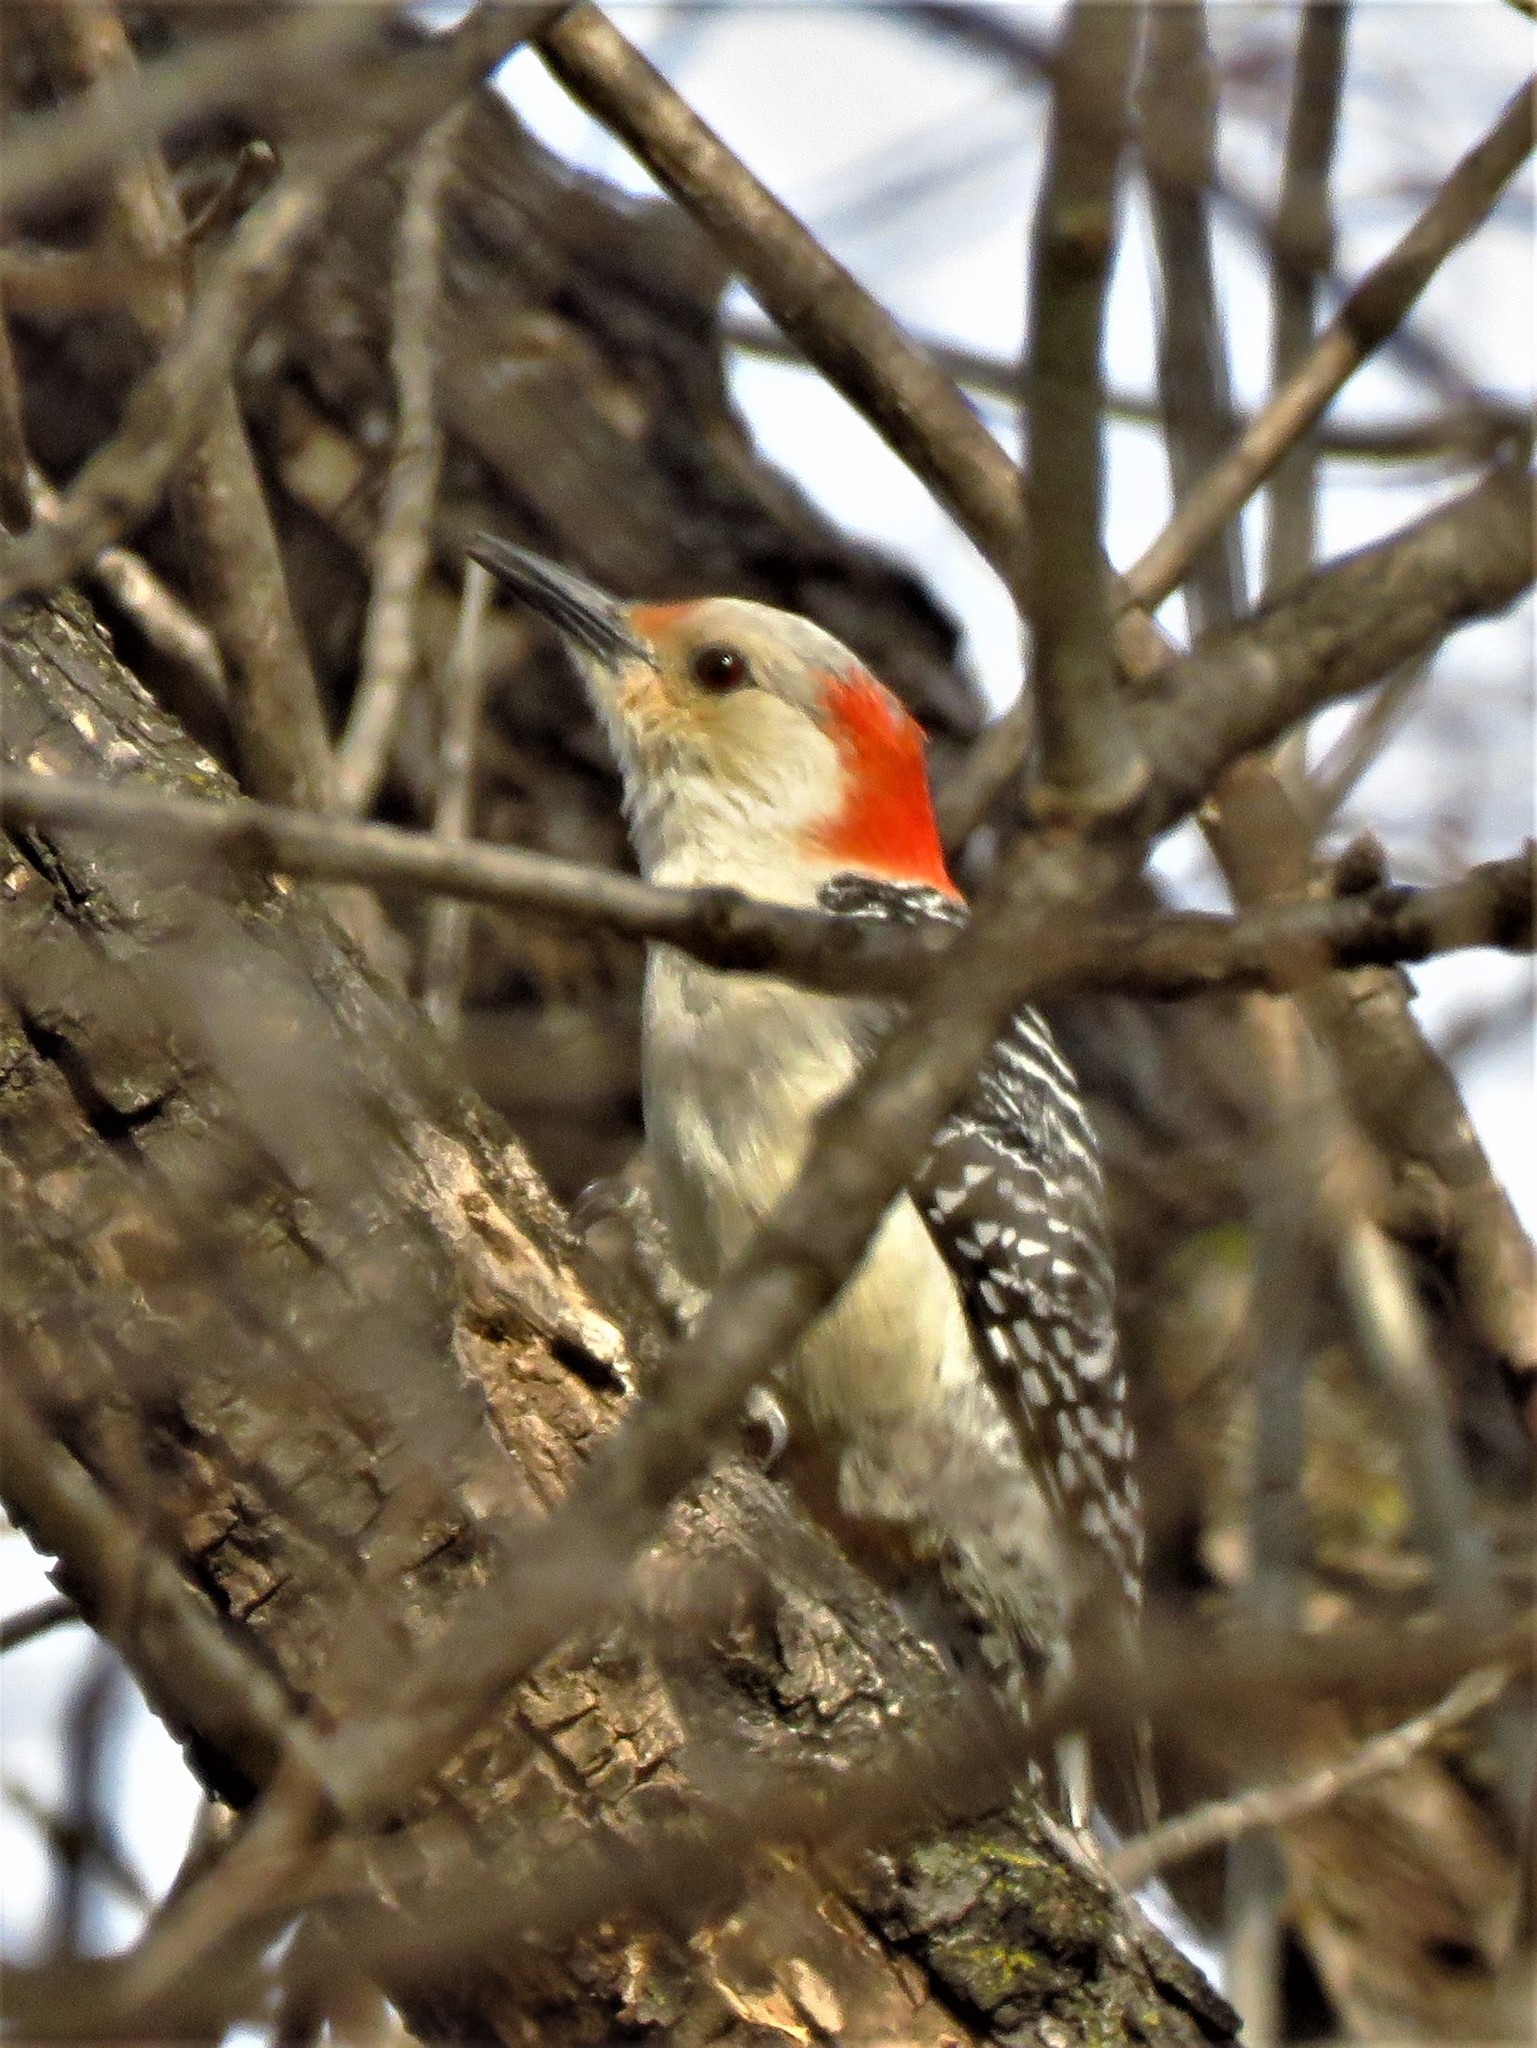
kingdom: Animalia
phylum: Chordata
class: Aves
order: Piciformes
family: Picidae
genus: Melanerpes
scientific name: Melanerpes carolinus
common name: Red-bellied woodpecker
